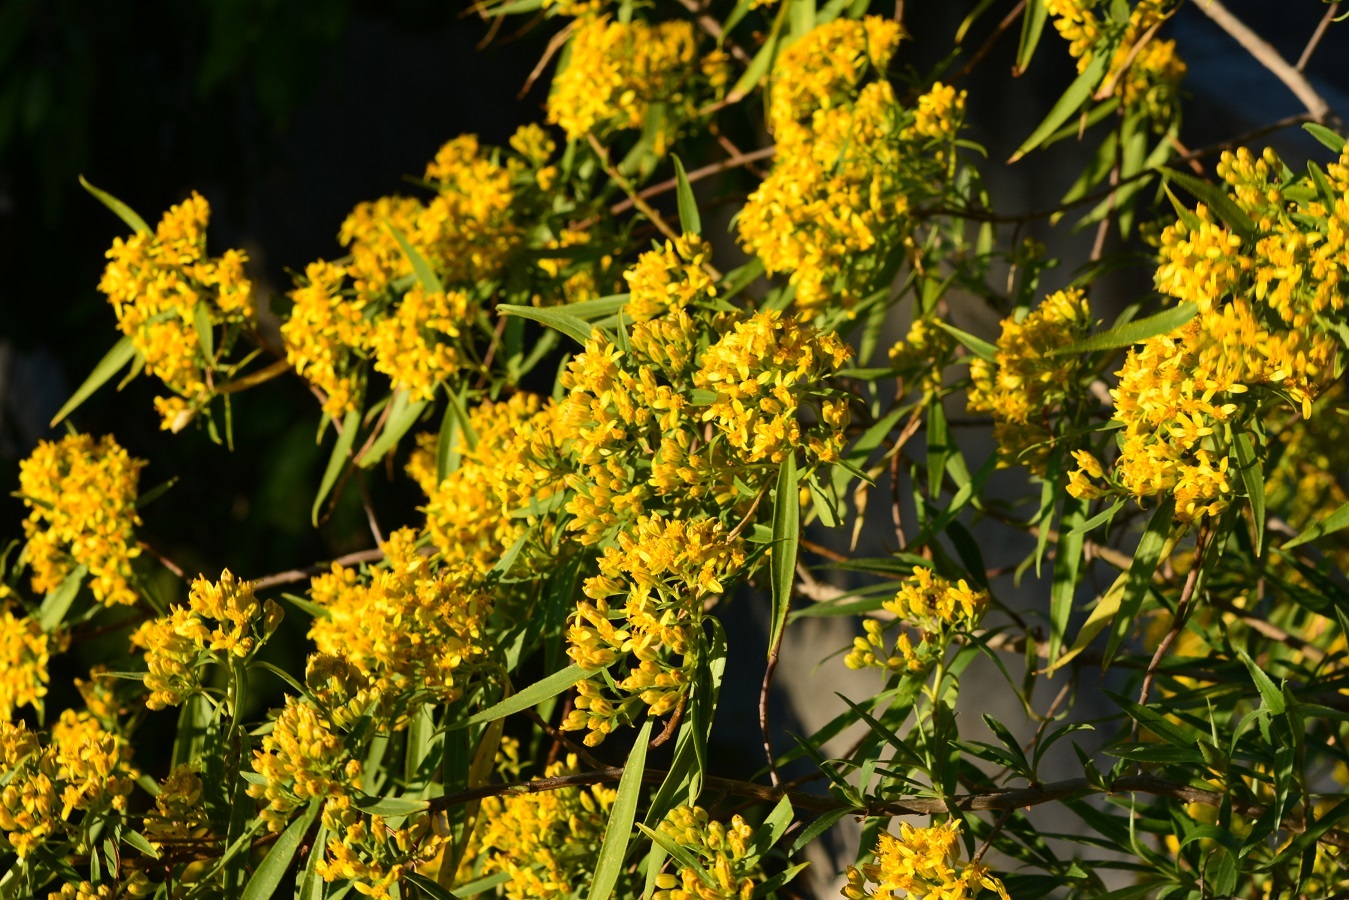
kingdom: Plantae
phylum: Tracheophyta
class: Magnoliopsida
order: Asterales
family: Asteraceae
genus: Barkleyanthus
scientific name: Barkleyanthus salicifolius
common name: Willow ragwort
